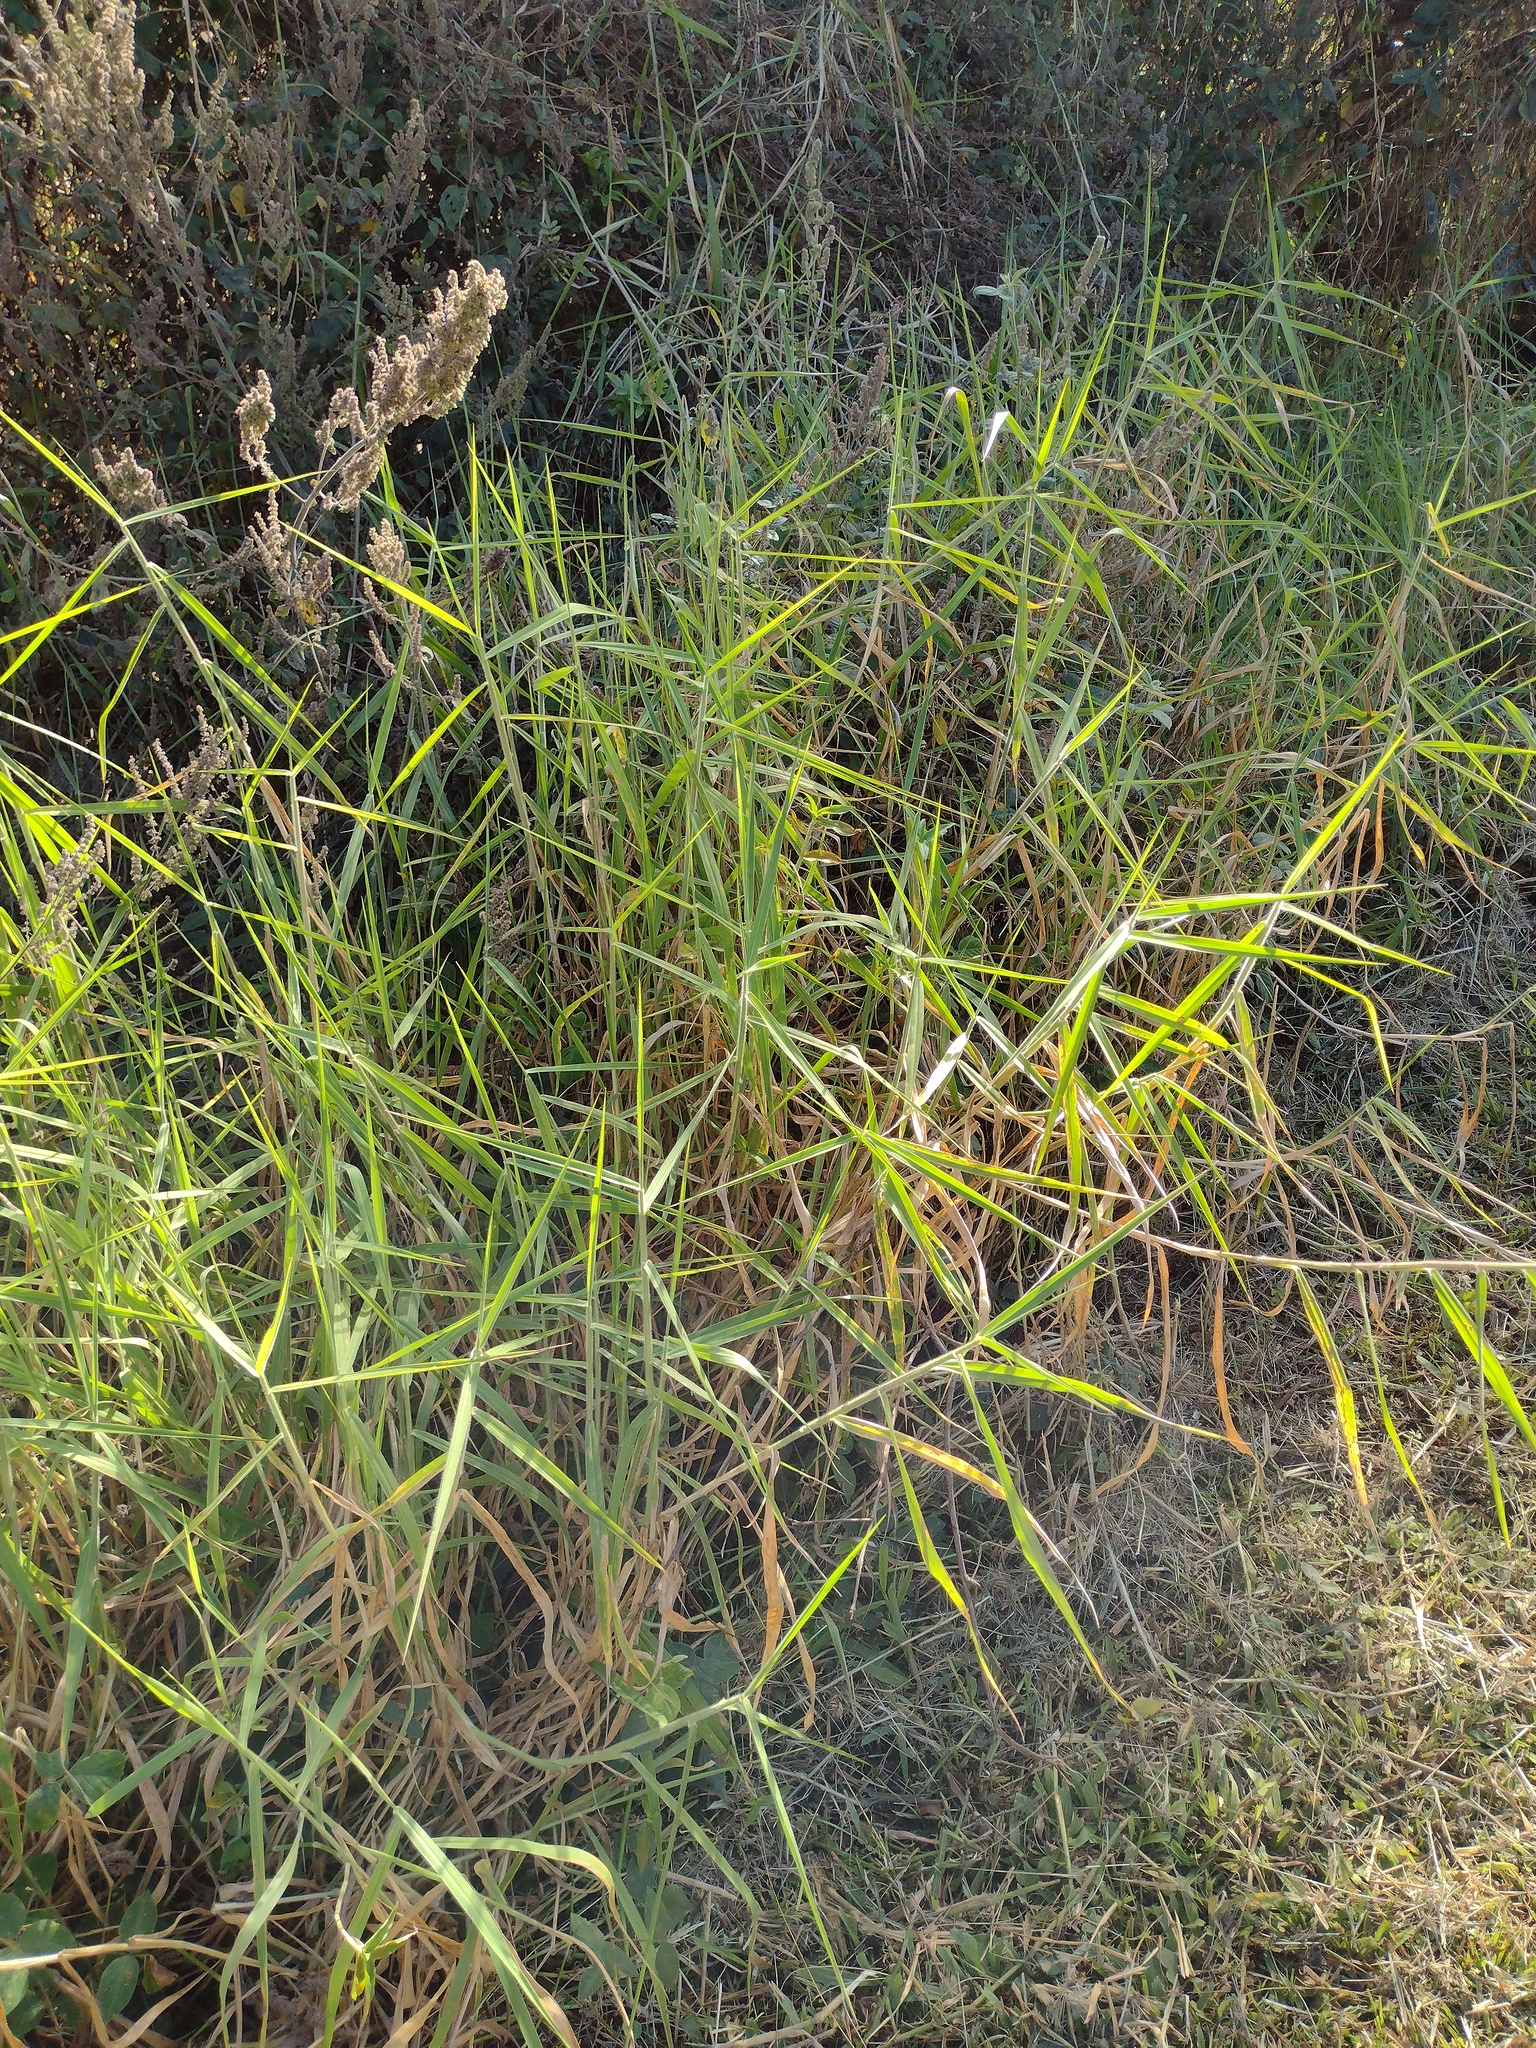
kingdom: Plantae
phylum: Tracheophyta
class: Liliopsida
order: Poales
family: Poaceae
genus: Urochloa
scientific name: Urochloa mutica
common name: Para grass
